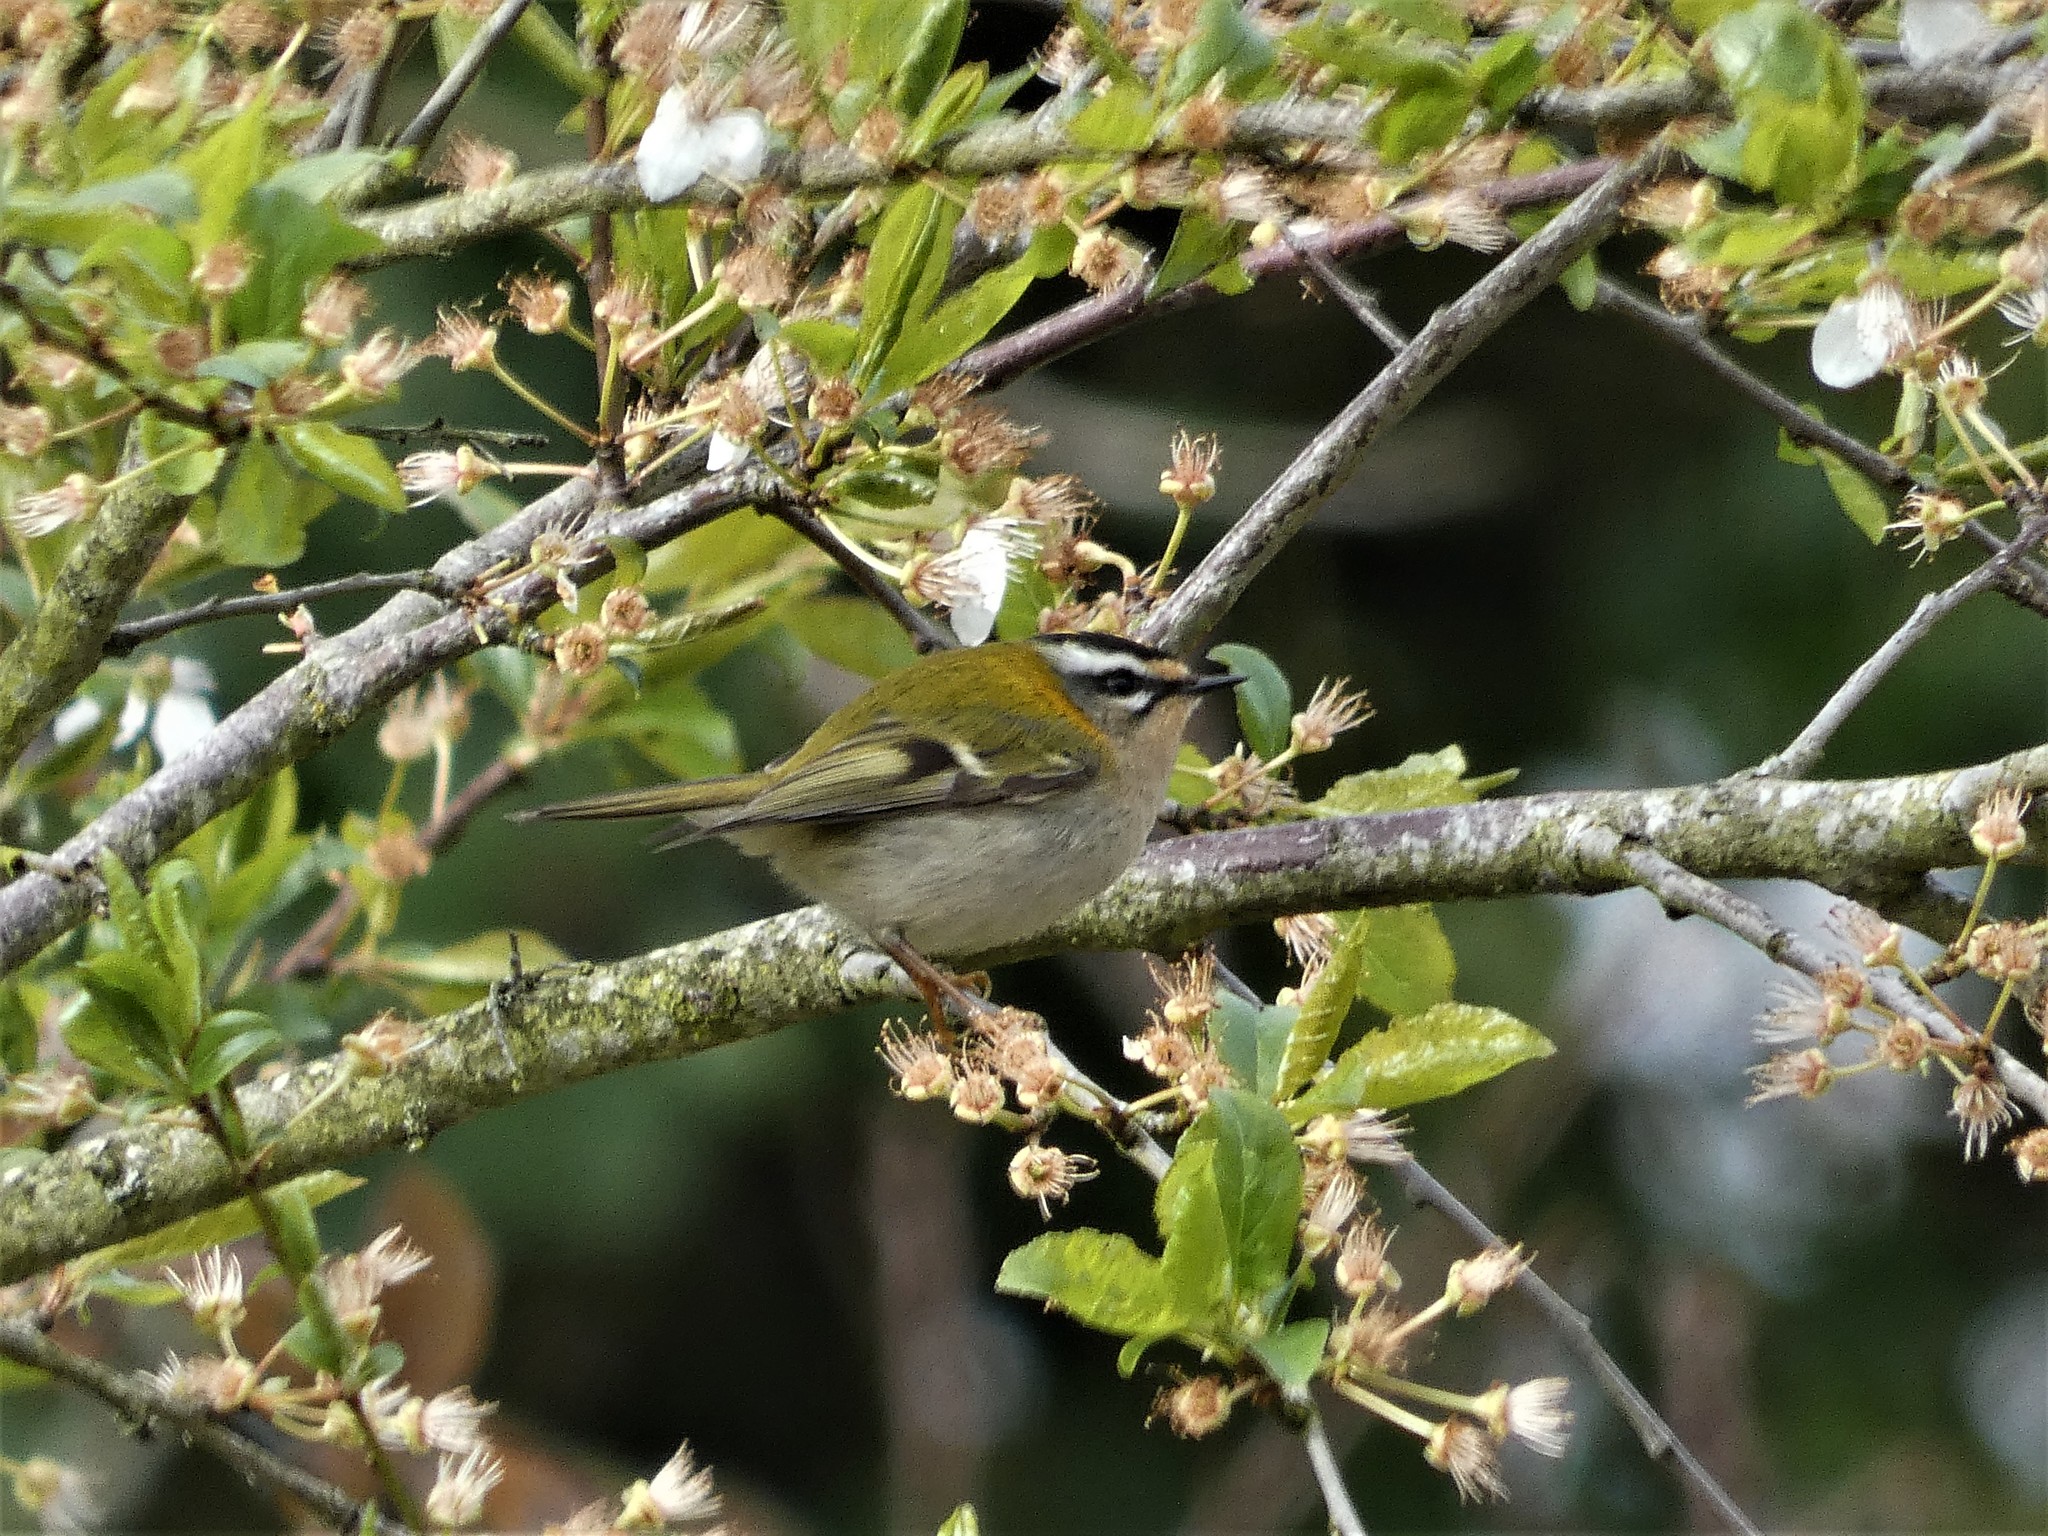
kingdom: Animalia
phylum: Chordata
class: Aves
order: Passeriformes
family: Regulidae
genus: Regulus
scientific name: Regulus ignicapilla
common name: Firecrest
